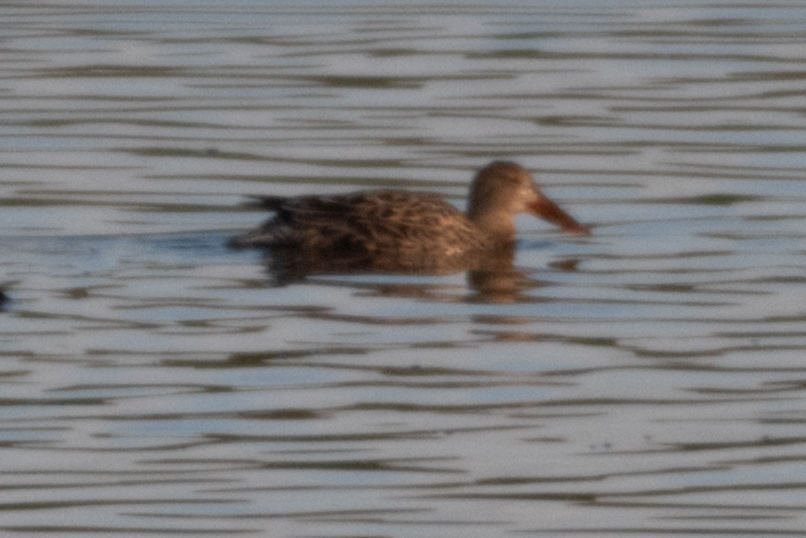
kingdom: Animalia
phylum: Chordata
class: Aves
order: Anseriformes
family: Anatidae
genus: Spatula
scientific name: Spatula clypeata
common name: Northern shoveler
